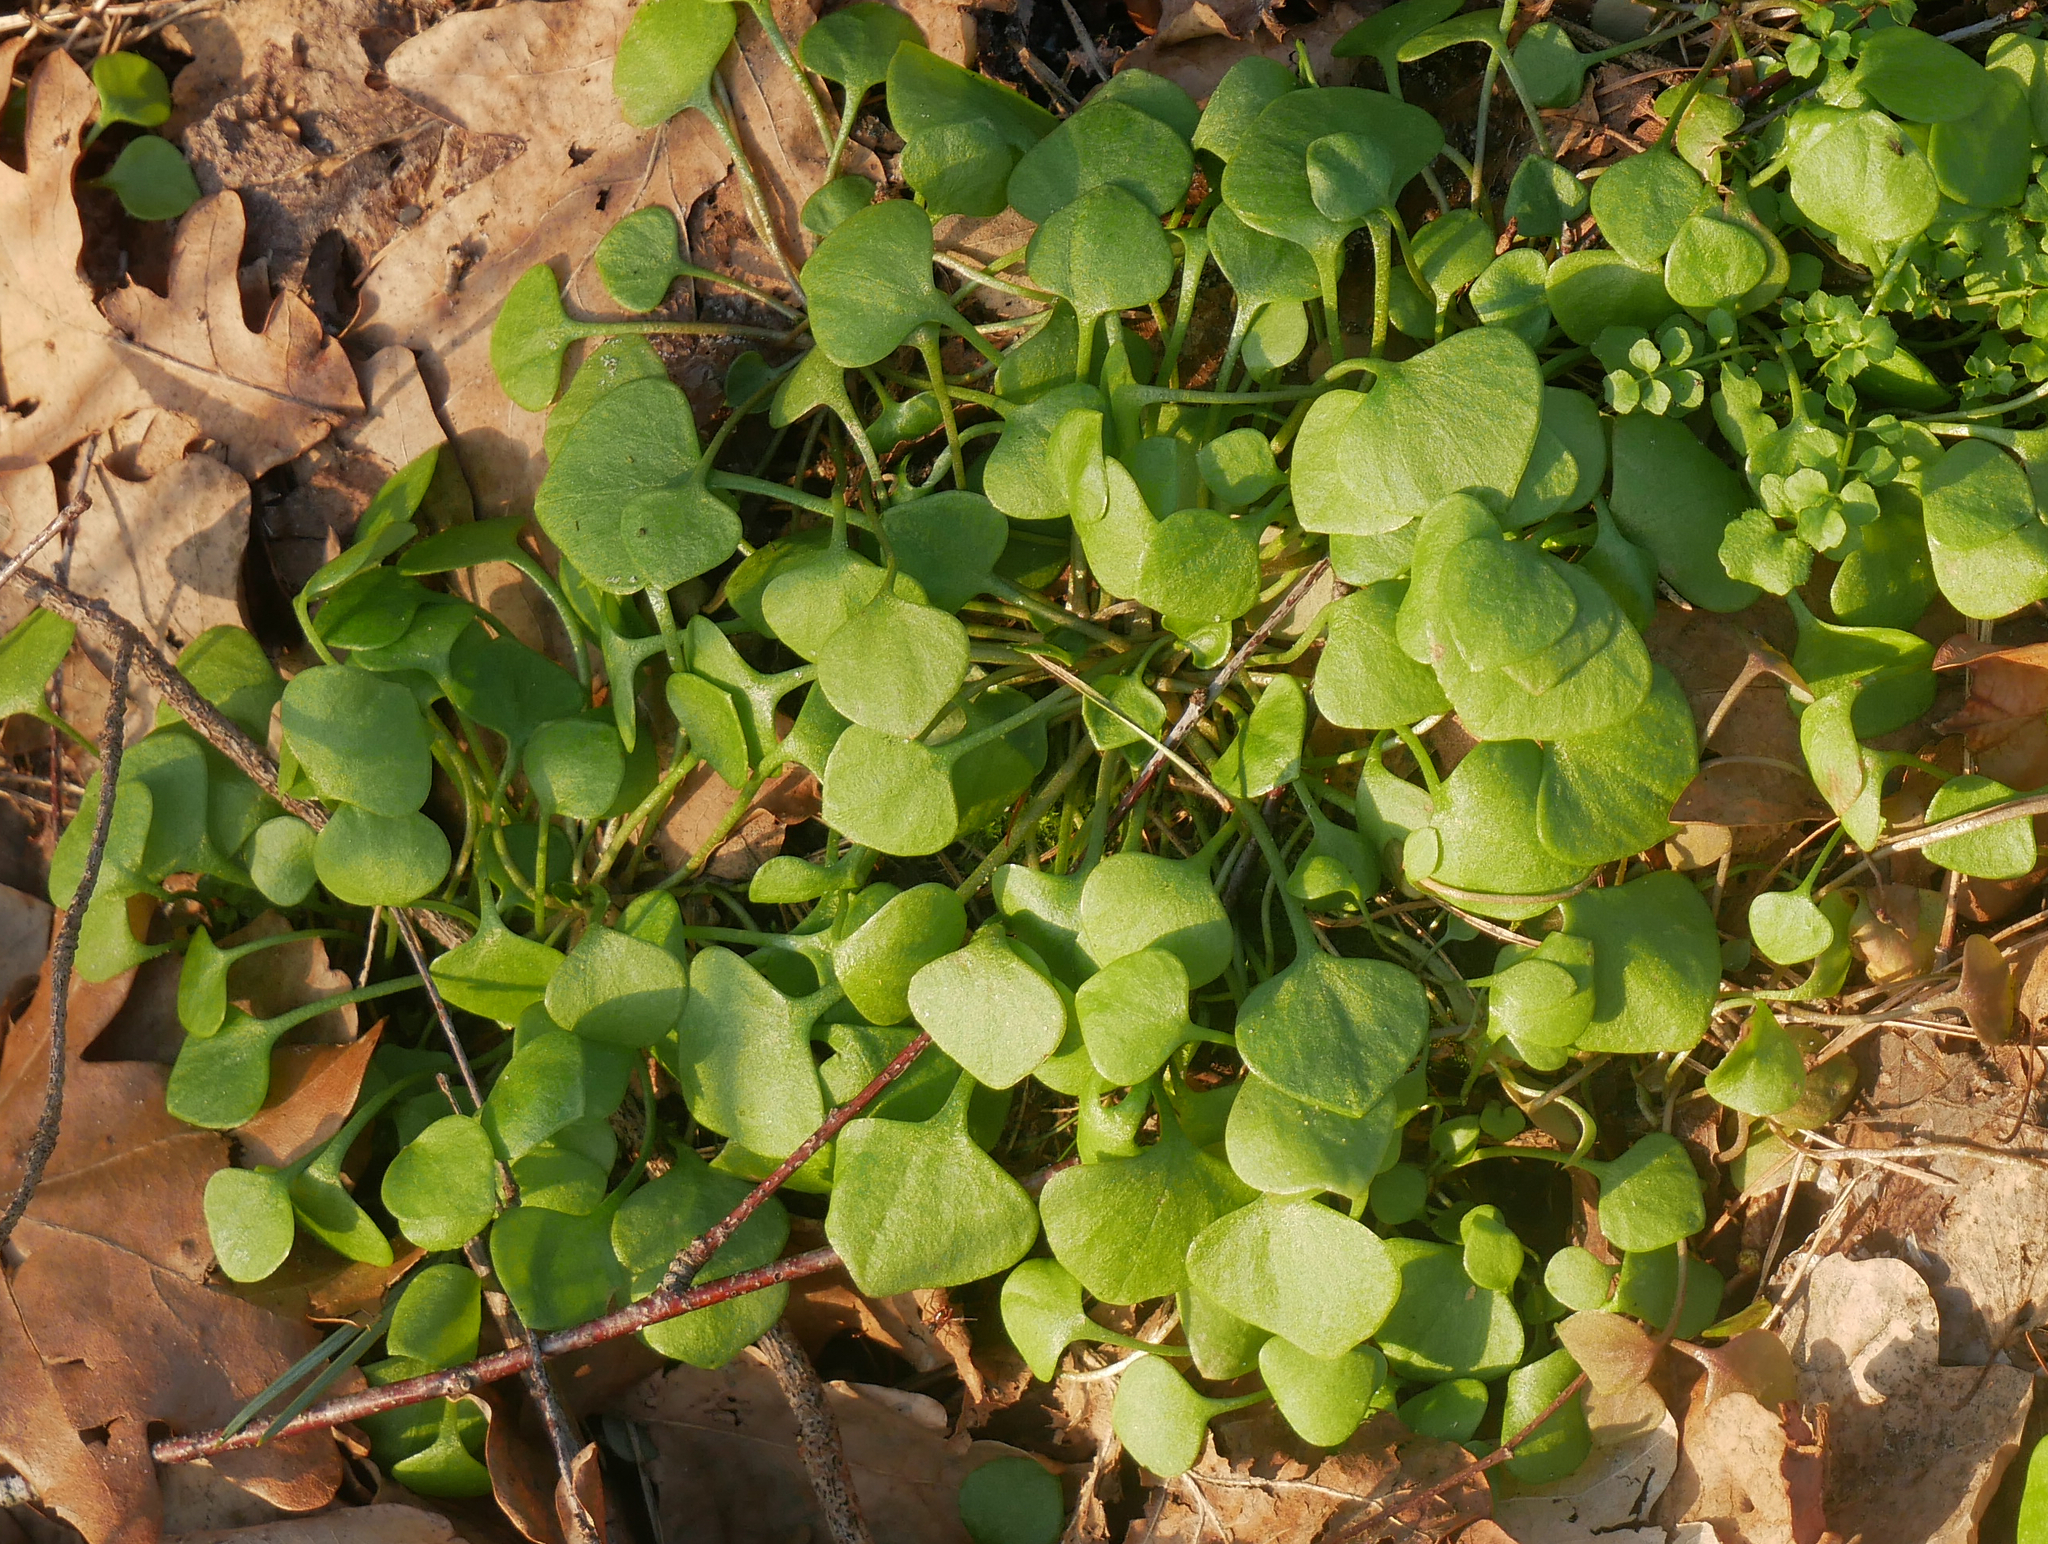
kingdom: Plantae
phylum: Tracheophyta
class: Magnoliopsida
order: Caryophyllales
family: Montiaceae
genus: Claytonia
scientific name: Claytonia perfoliata
